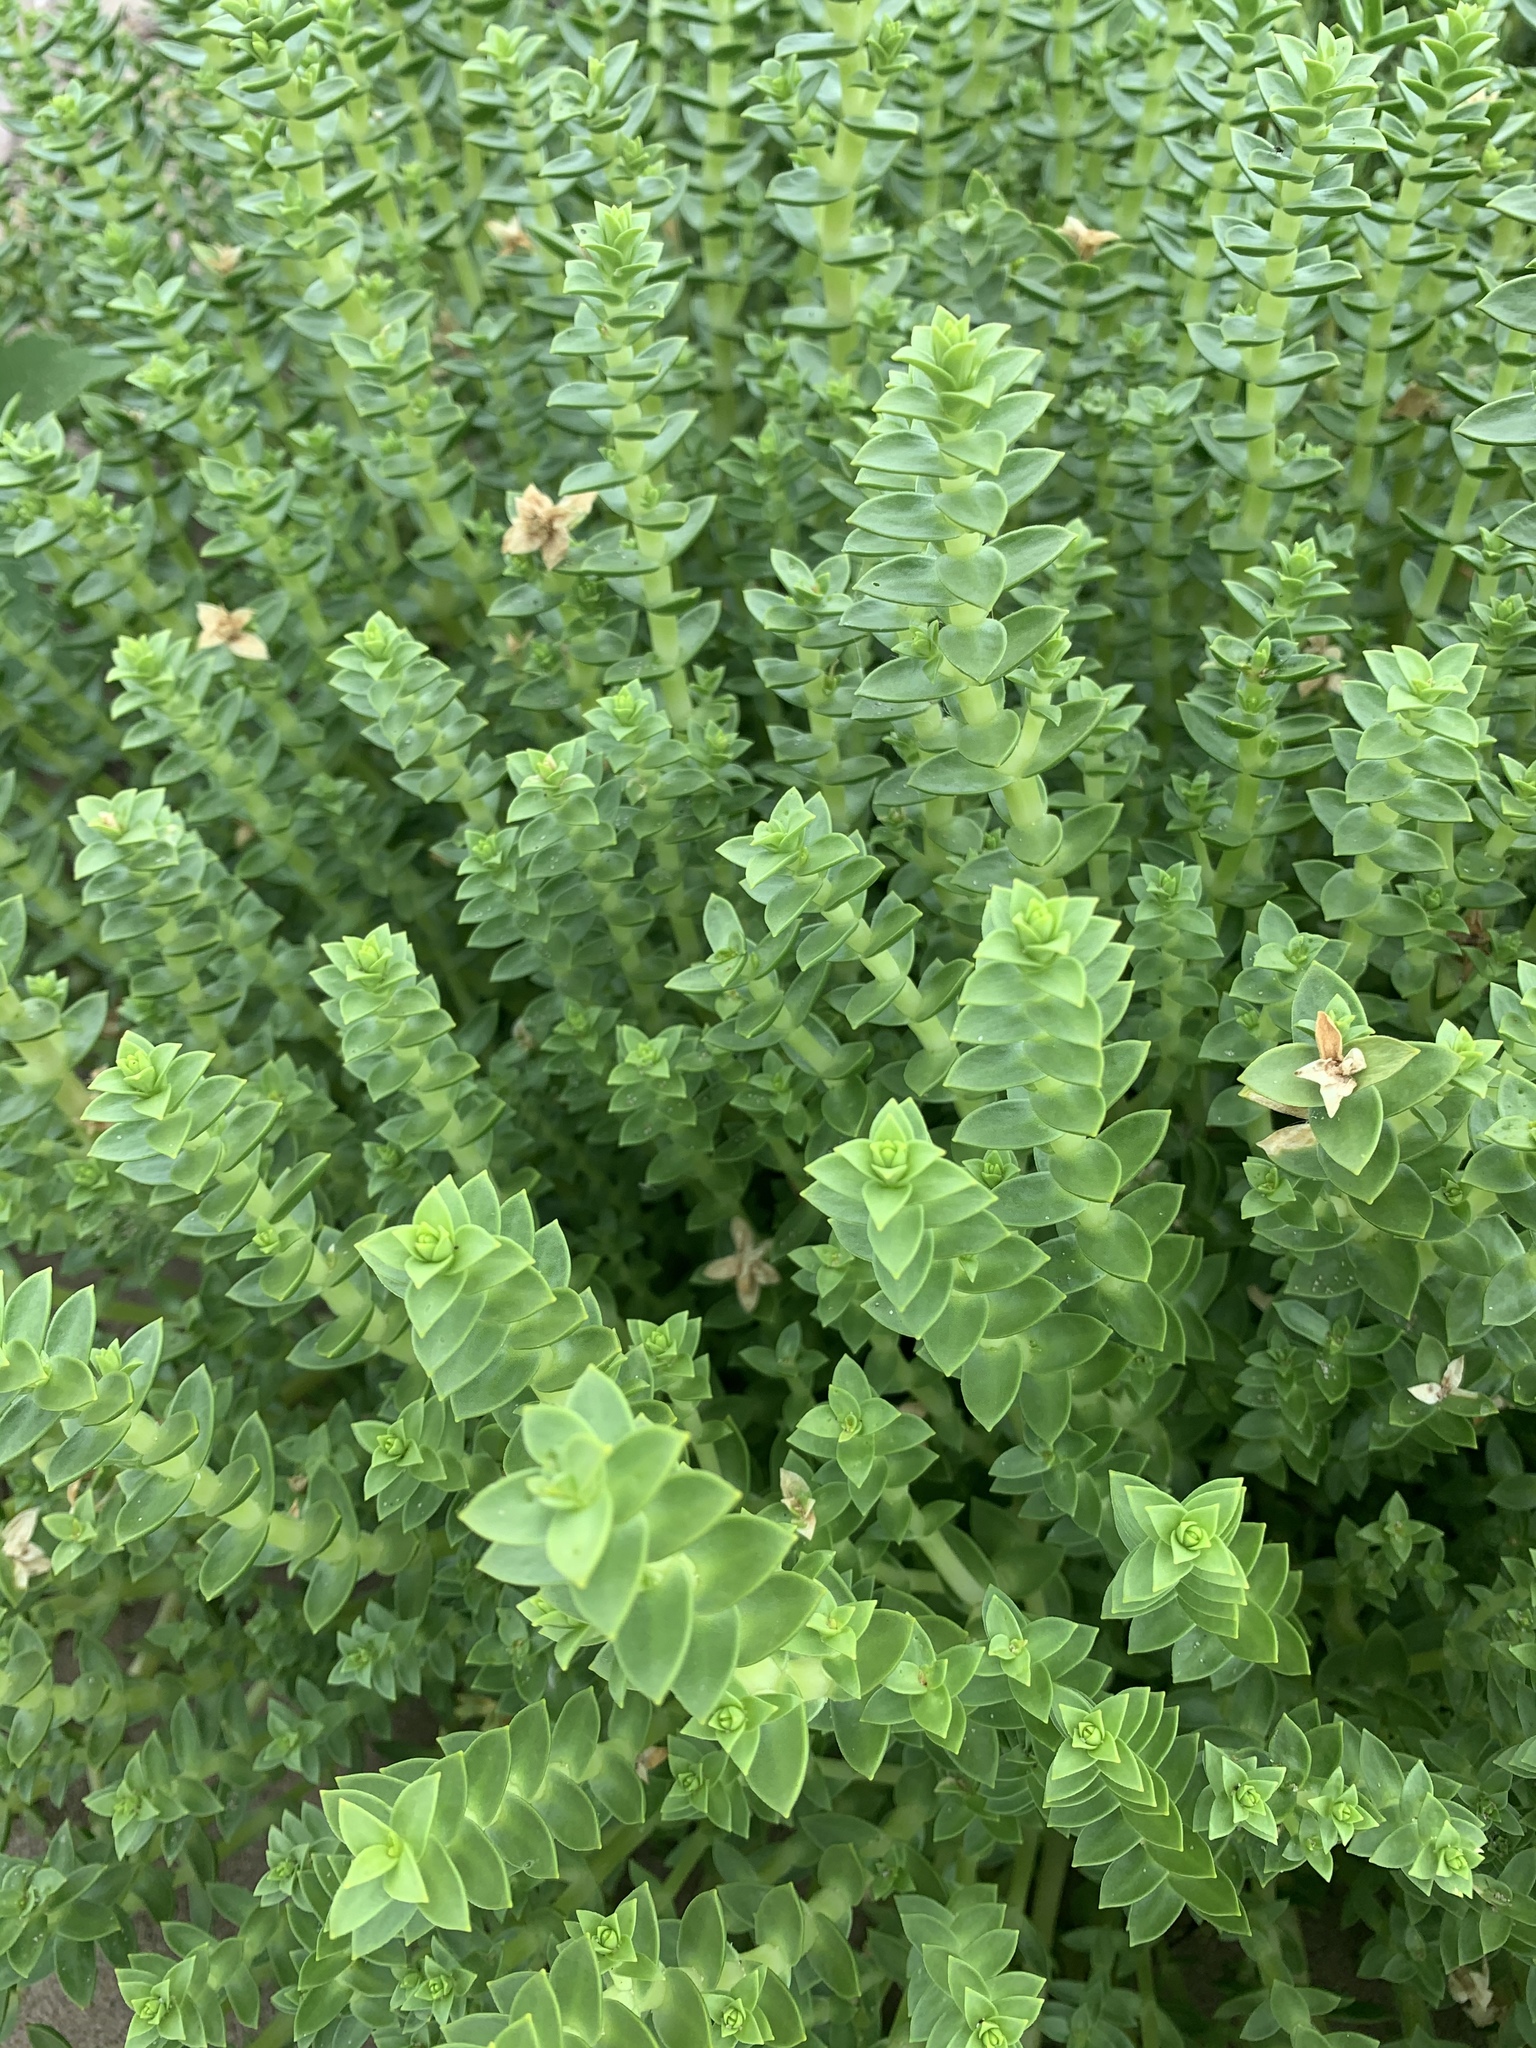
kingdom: Plantae
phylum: Tracheophyta
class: Magnoliopsida
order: Caryophyllales
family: Caryophyllaceae
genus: Honckenya
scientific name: Honckenya peploides
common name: Sea sandwort
